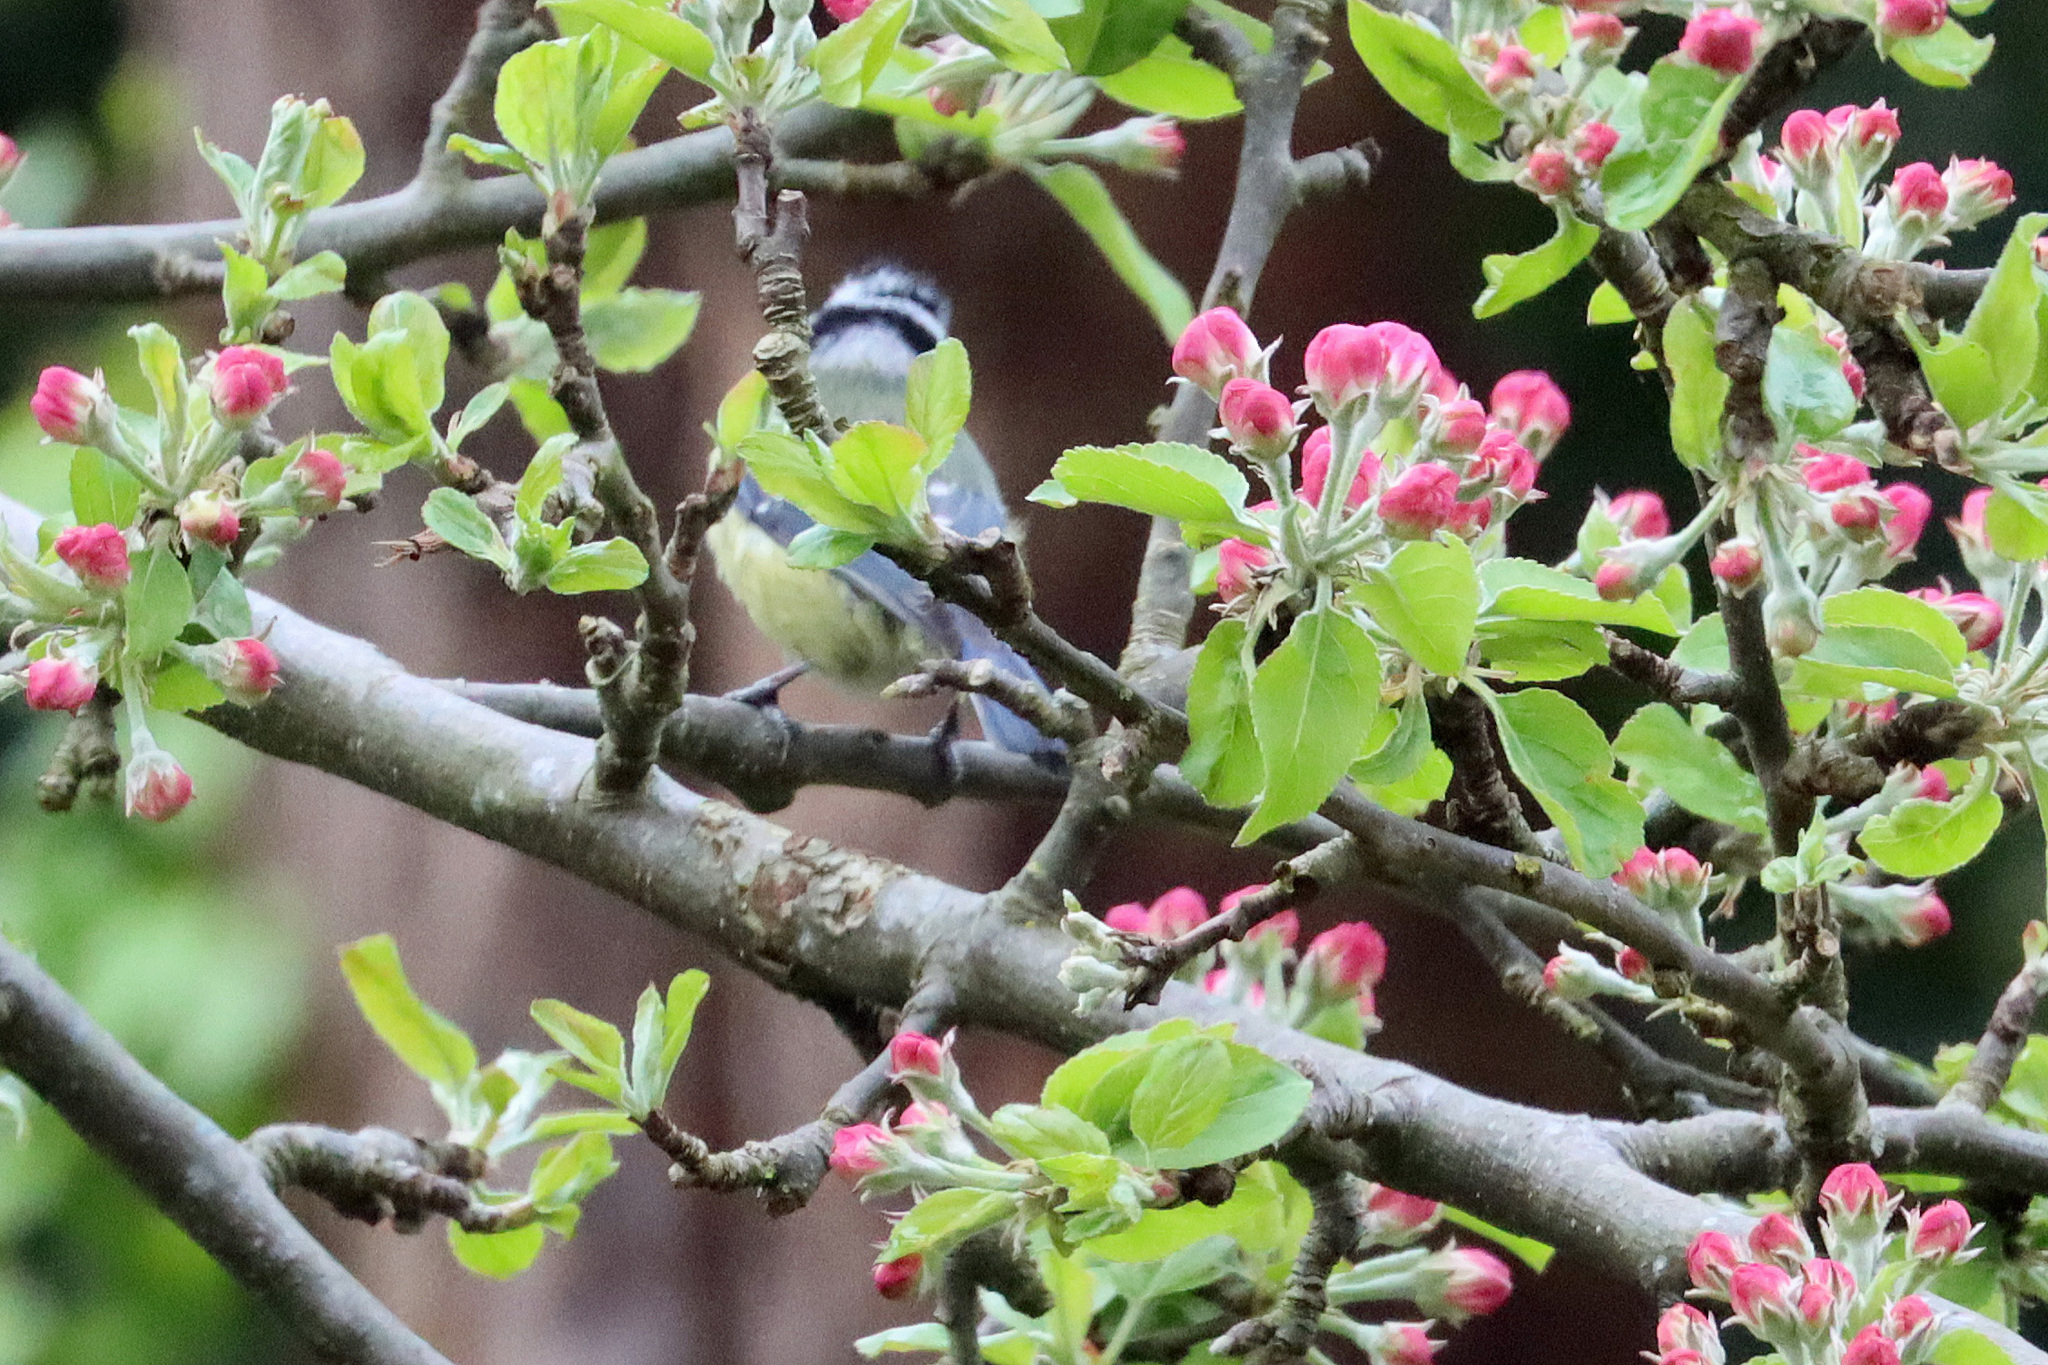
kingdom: Animalia
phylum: Chordata
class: Aves
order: Passeriformes
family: Paridae
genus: Cyanistes
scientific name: Cyanistes caeruleus
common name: Eurasian blue tit
